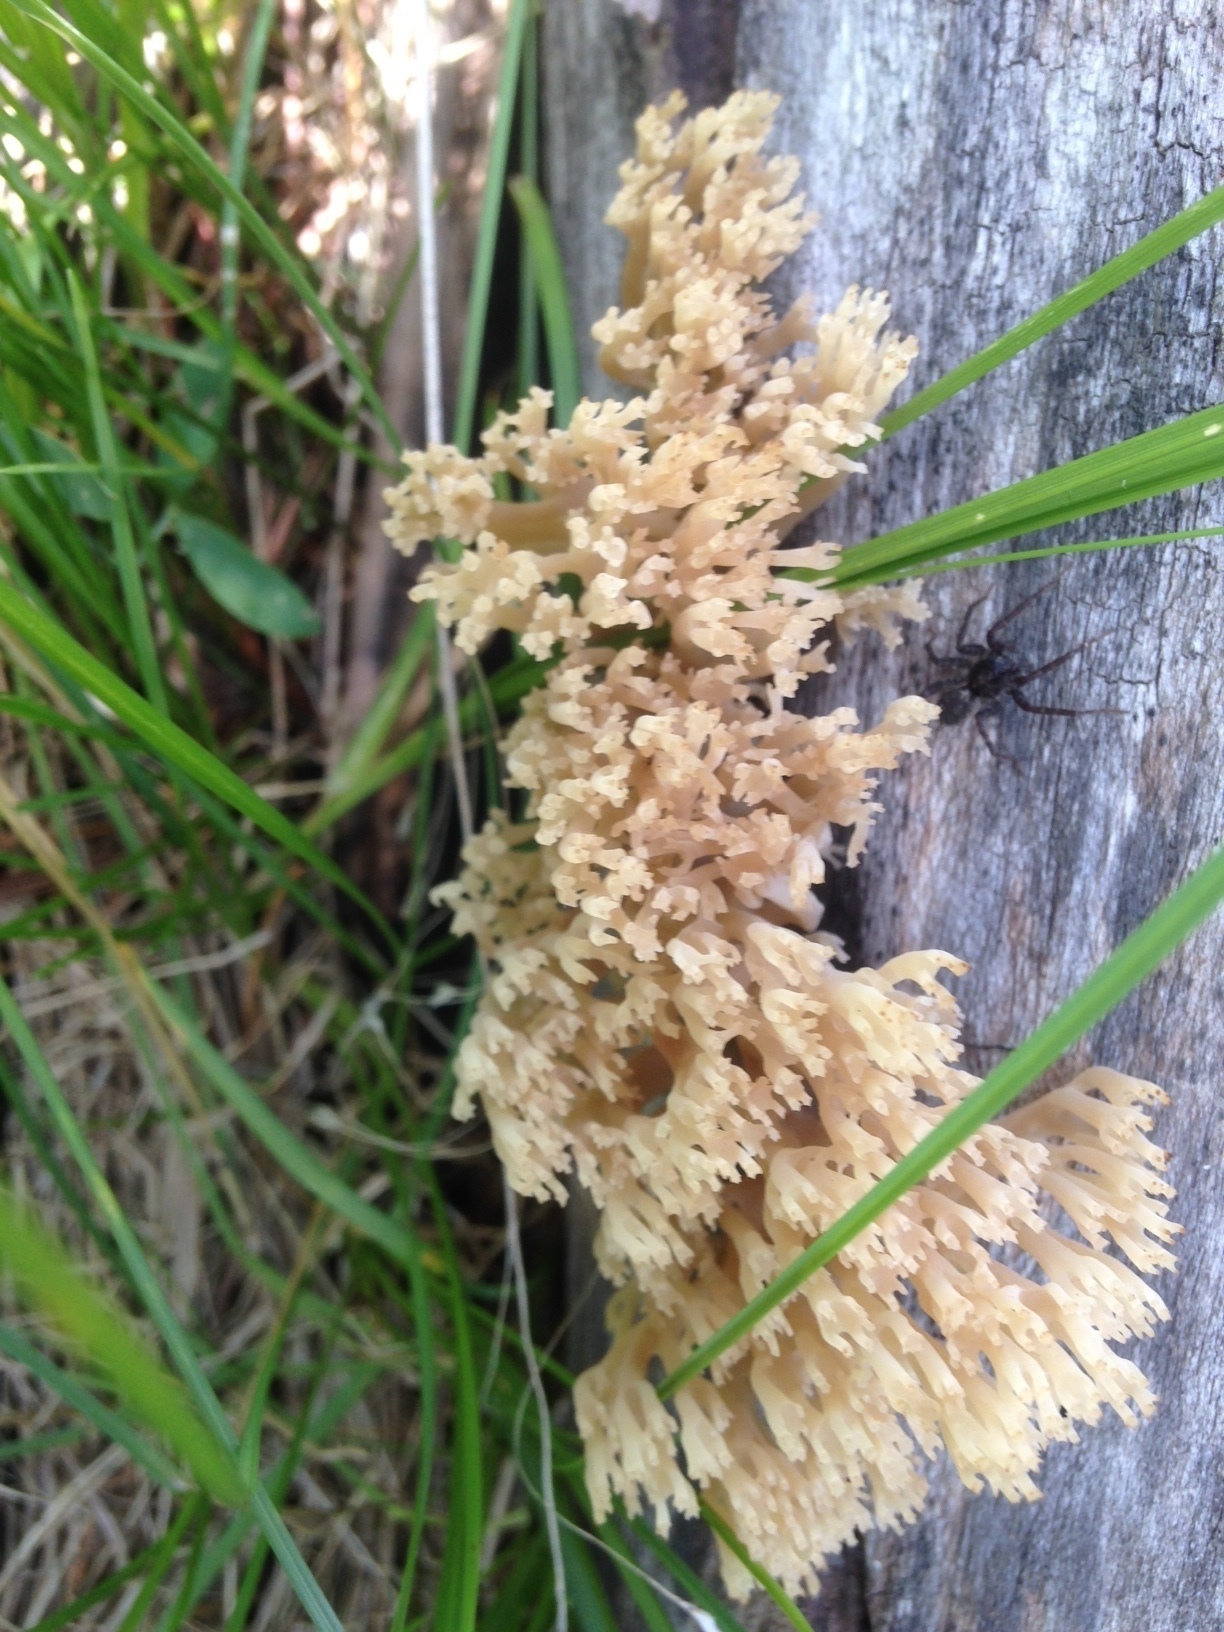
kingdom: Fungi
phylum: Basidiomycota
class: Agaricomycetes
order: Russulales
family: Auriscalpiaceae
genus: Artomyces
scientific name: Artomyces pyxidatus
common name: Crown-tipped coral fungus
